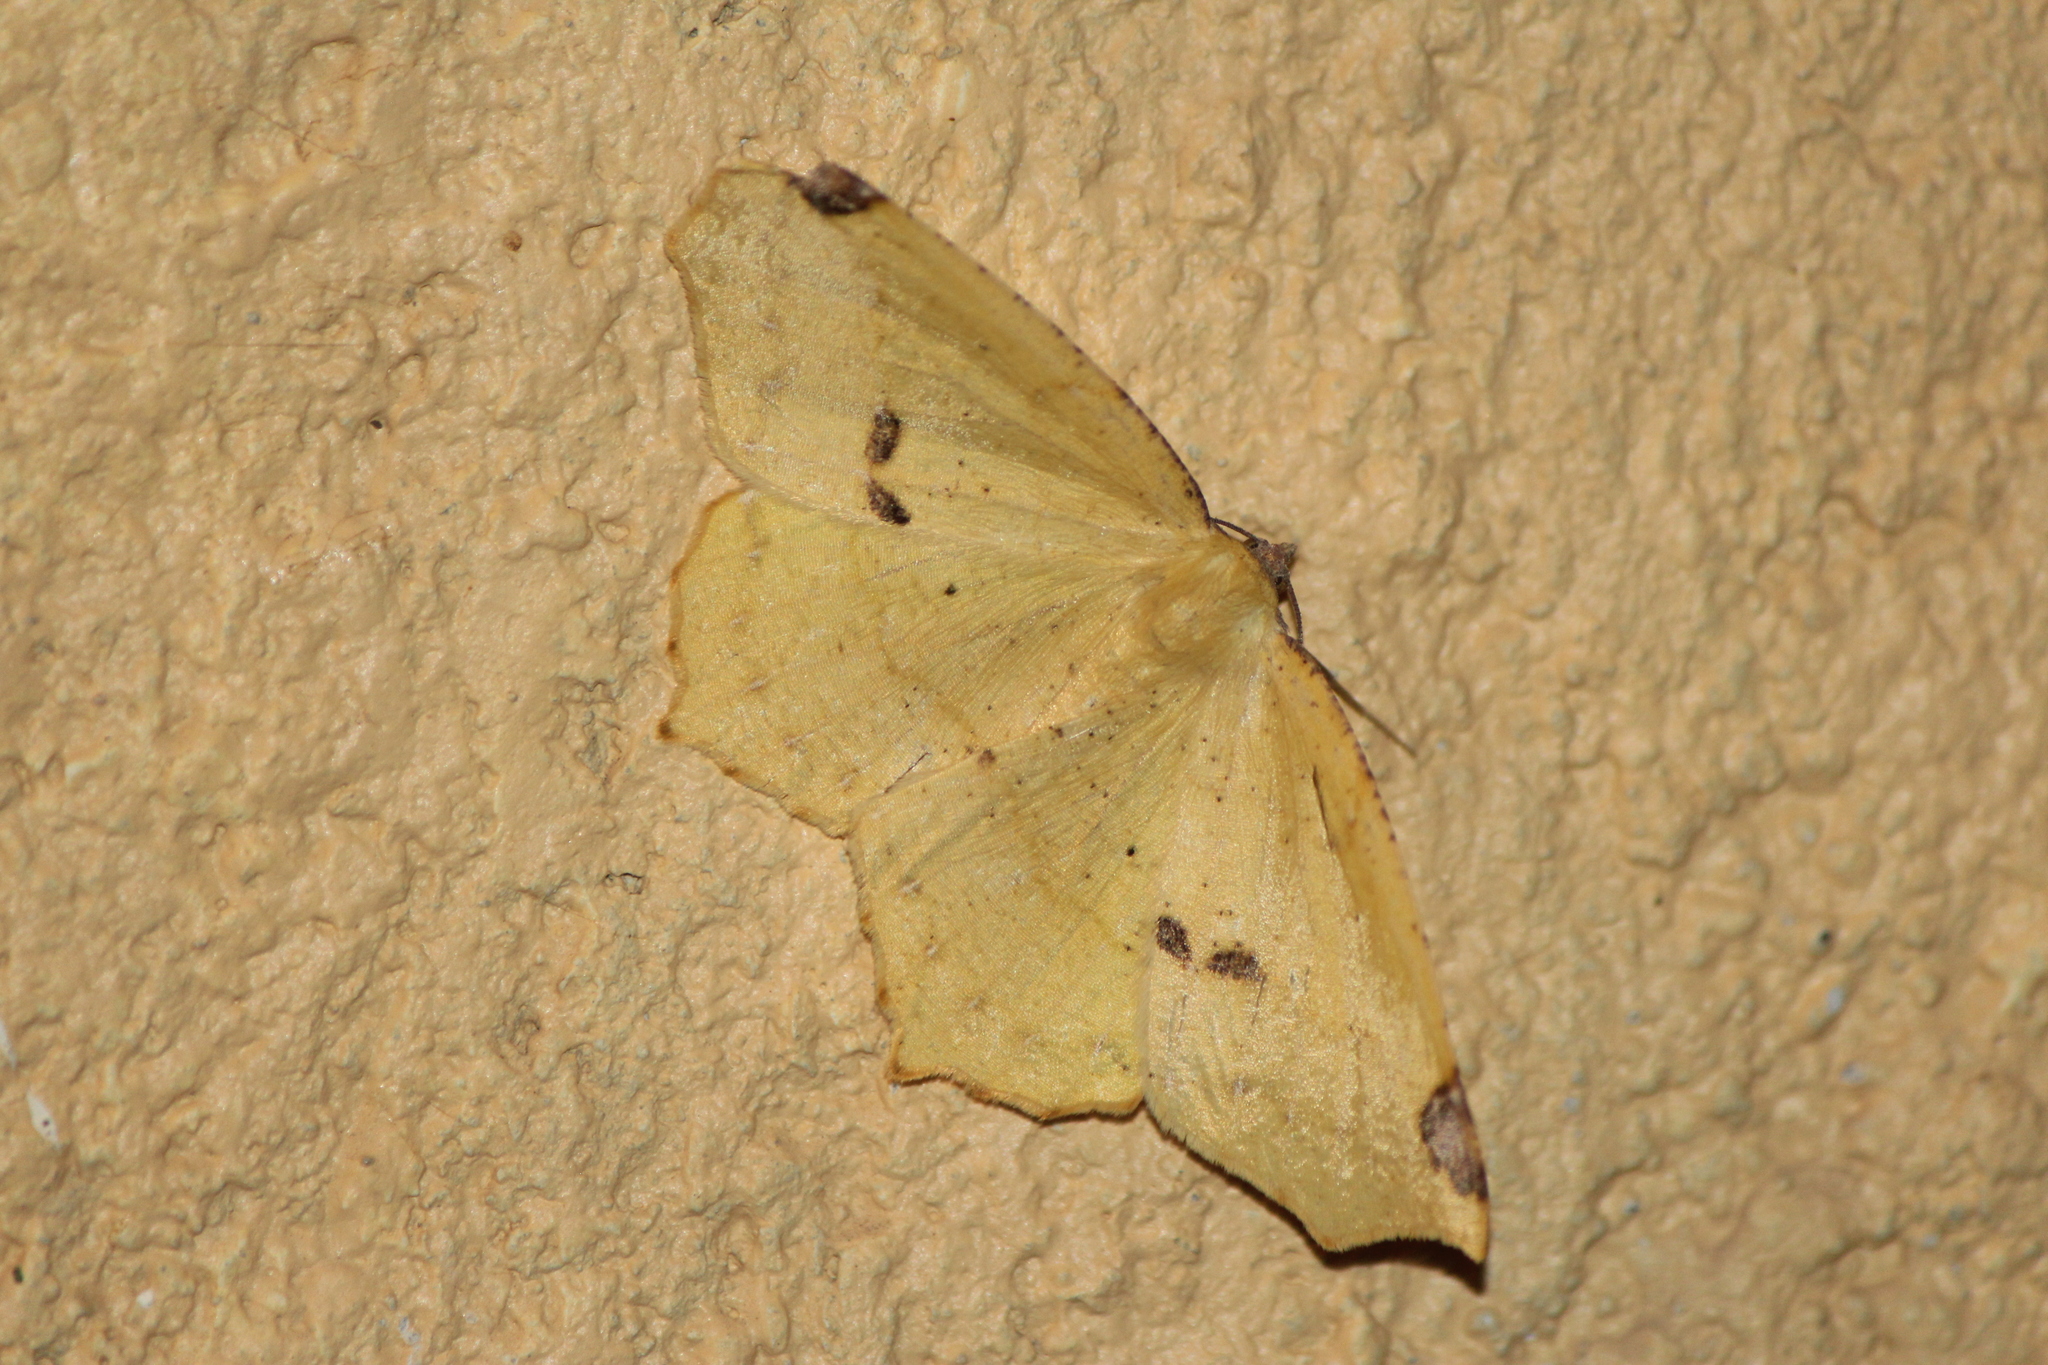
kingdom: Animalia
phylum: Arthropoda
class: Insecta
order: Lepidoptera
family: Geometridae
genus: Antepione
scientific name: Antepione thisoaria
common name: Variable antipione
